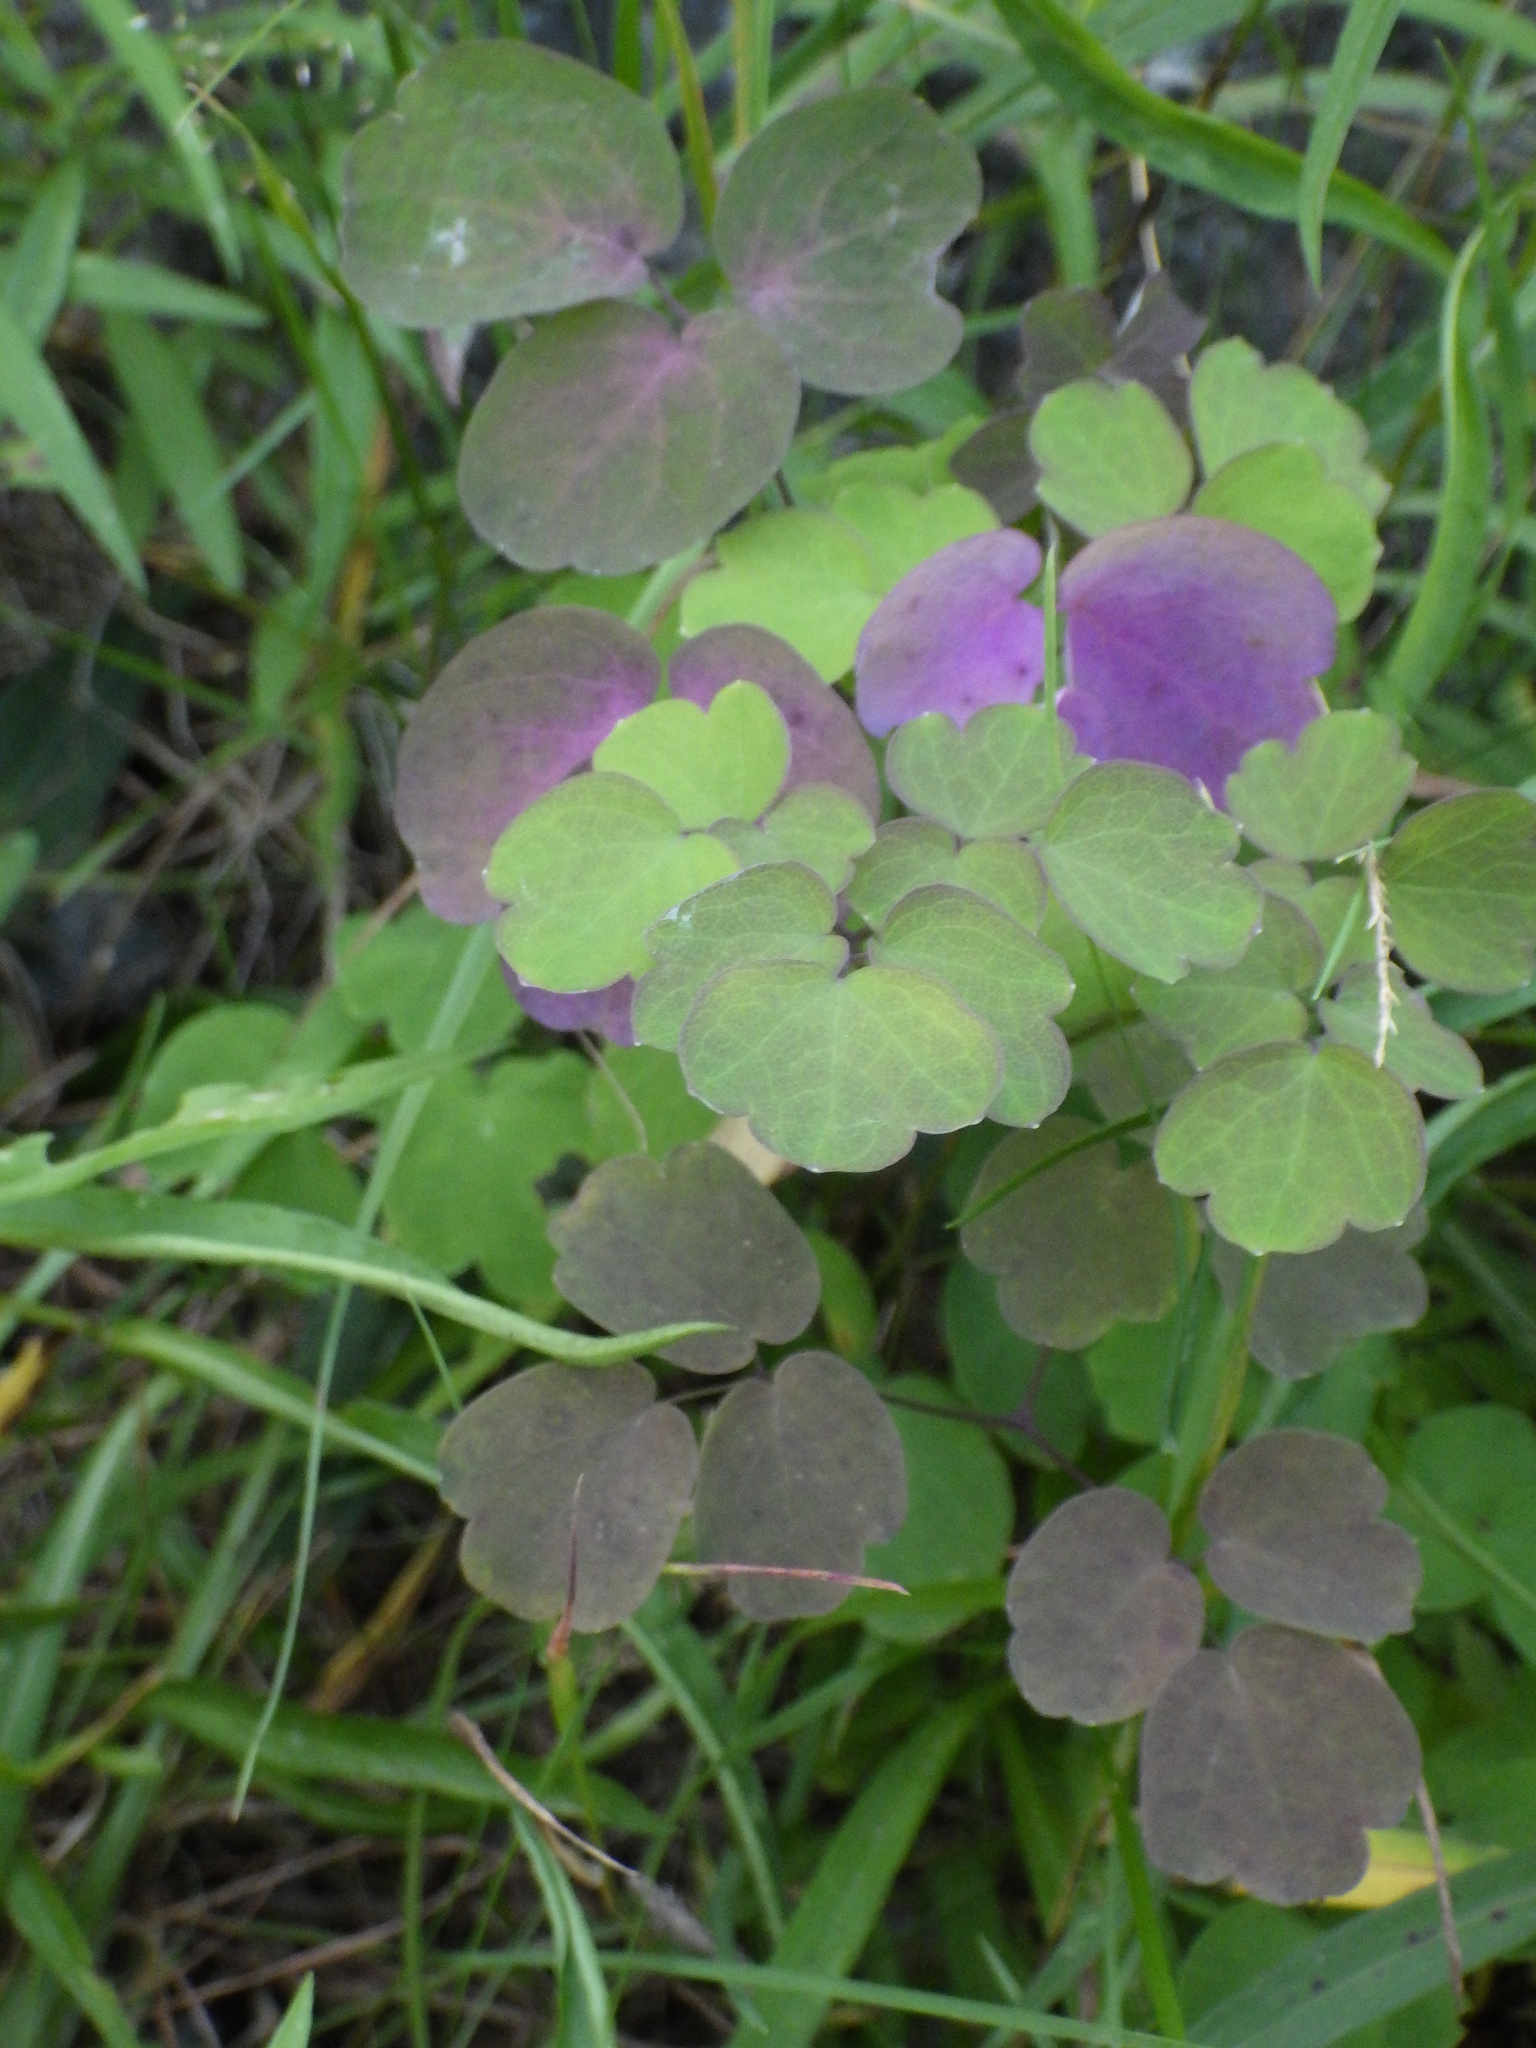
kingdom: Plantae
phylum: Tracheophyta
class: Magnoliopsida
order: Ranunculales
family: Ranunculaceae
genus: Thalictrum
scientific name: Thalictrum pubescens
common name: King-of-the-meadow
